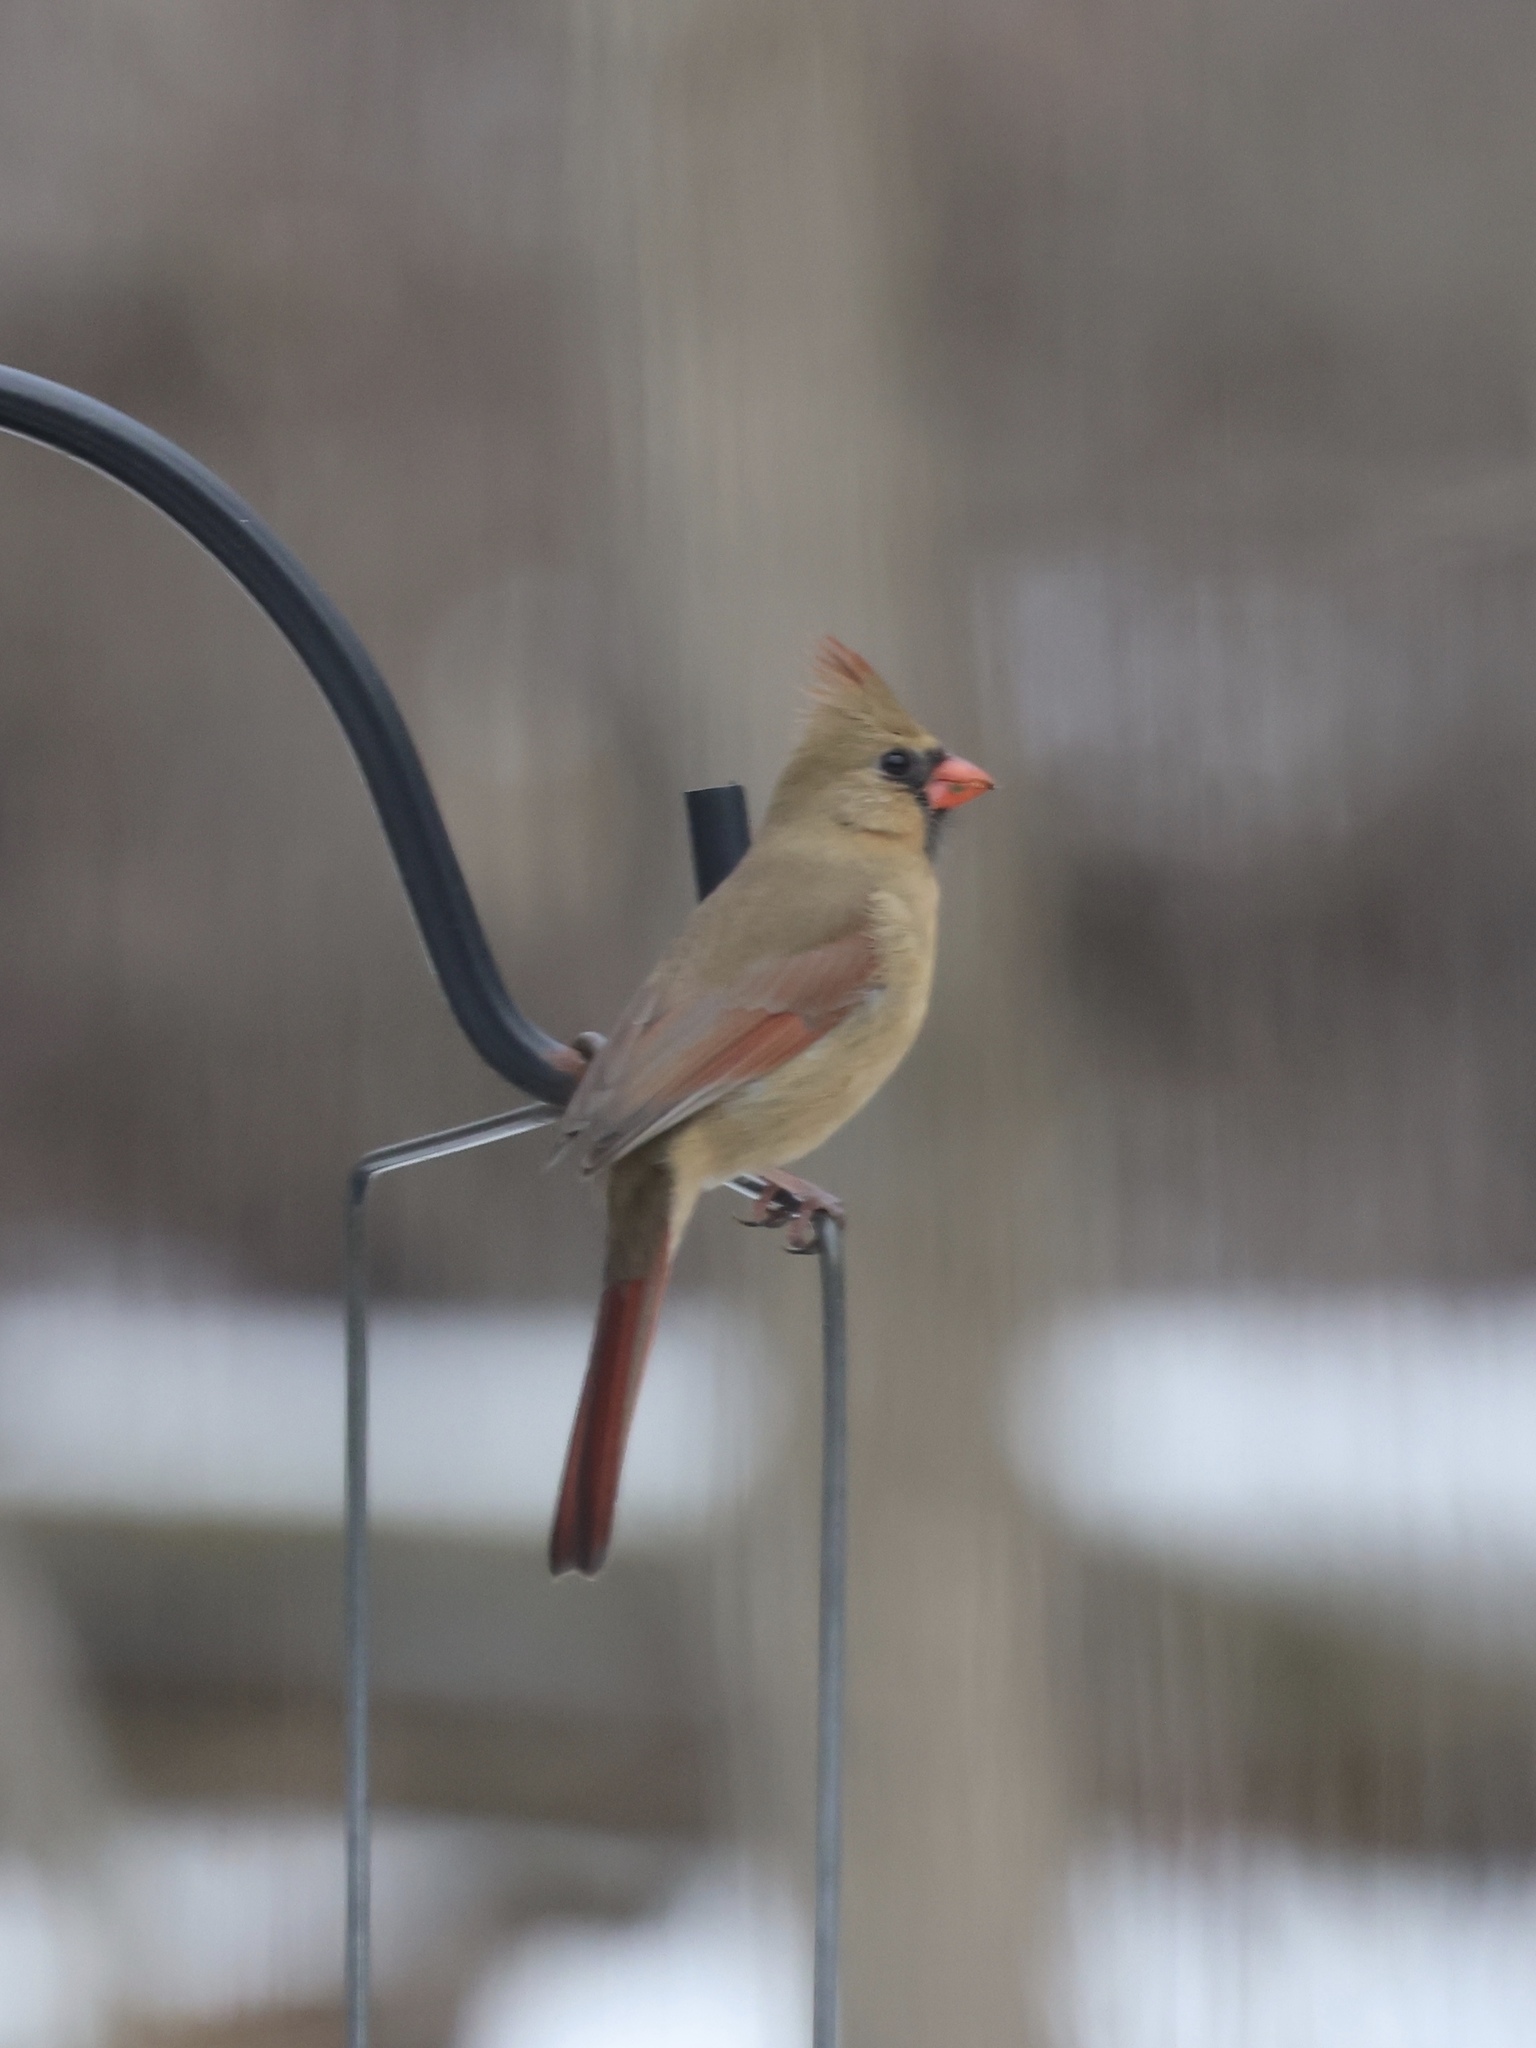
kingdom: Animalia
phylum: Chordata
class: Aves
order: Passeriformes
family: Cardinalidae
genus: Cardinalis
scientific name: Cardinalis cardinalis
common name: Northern cardinal
